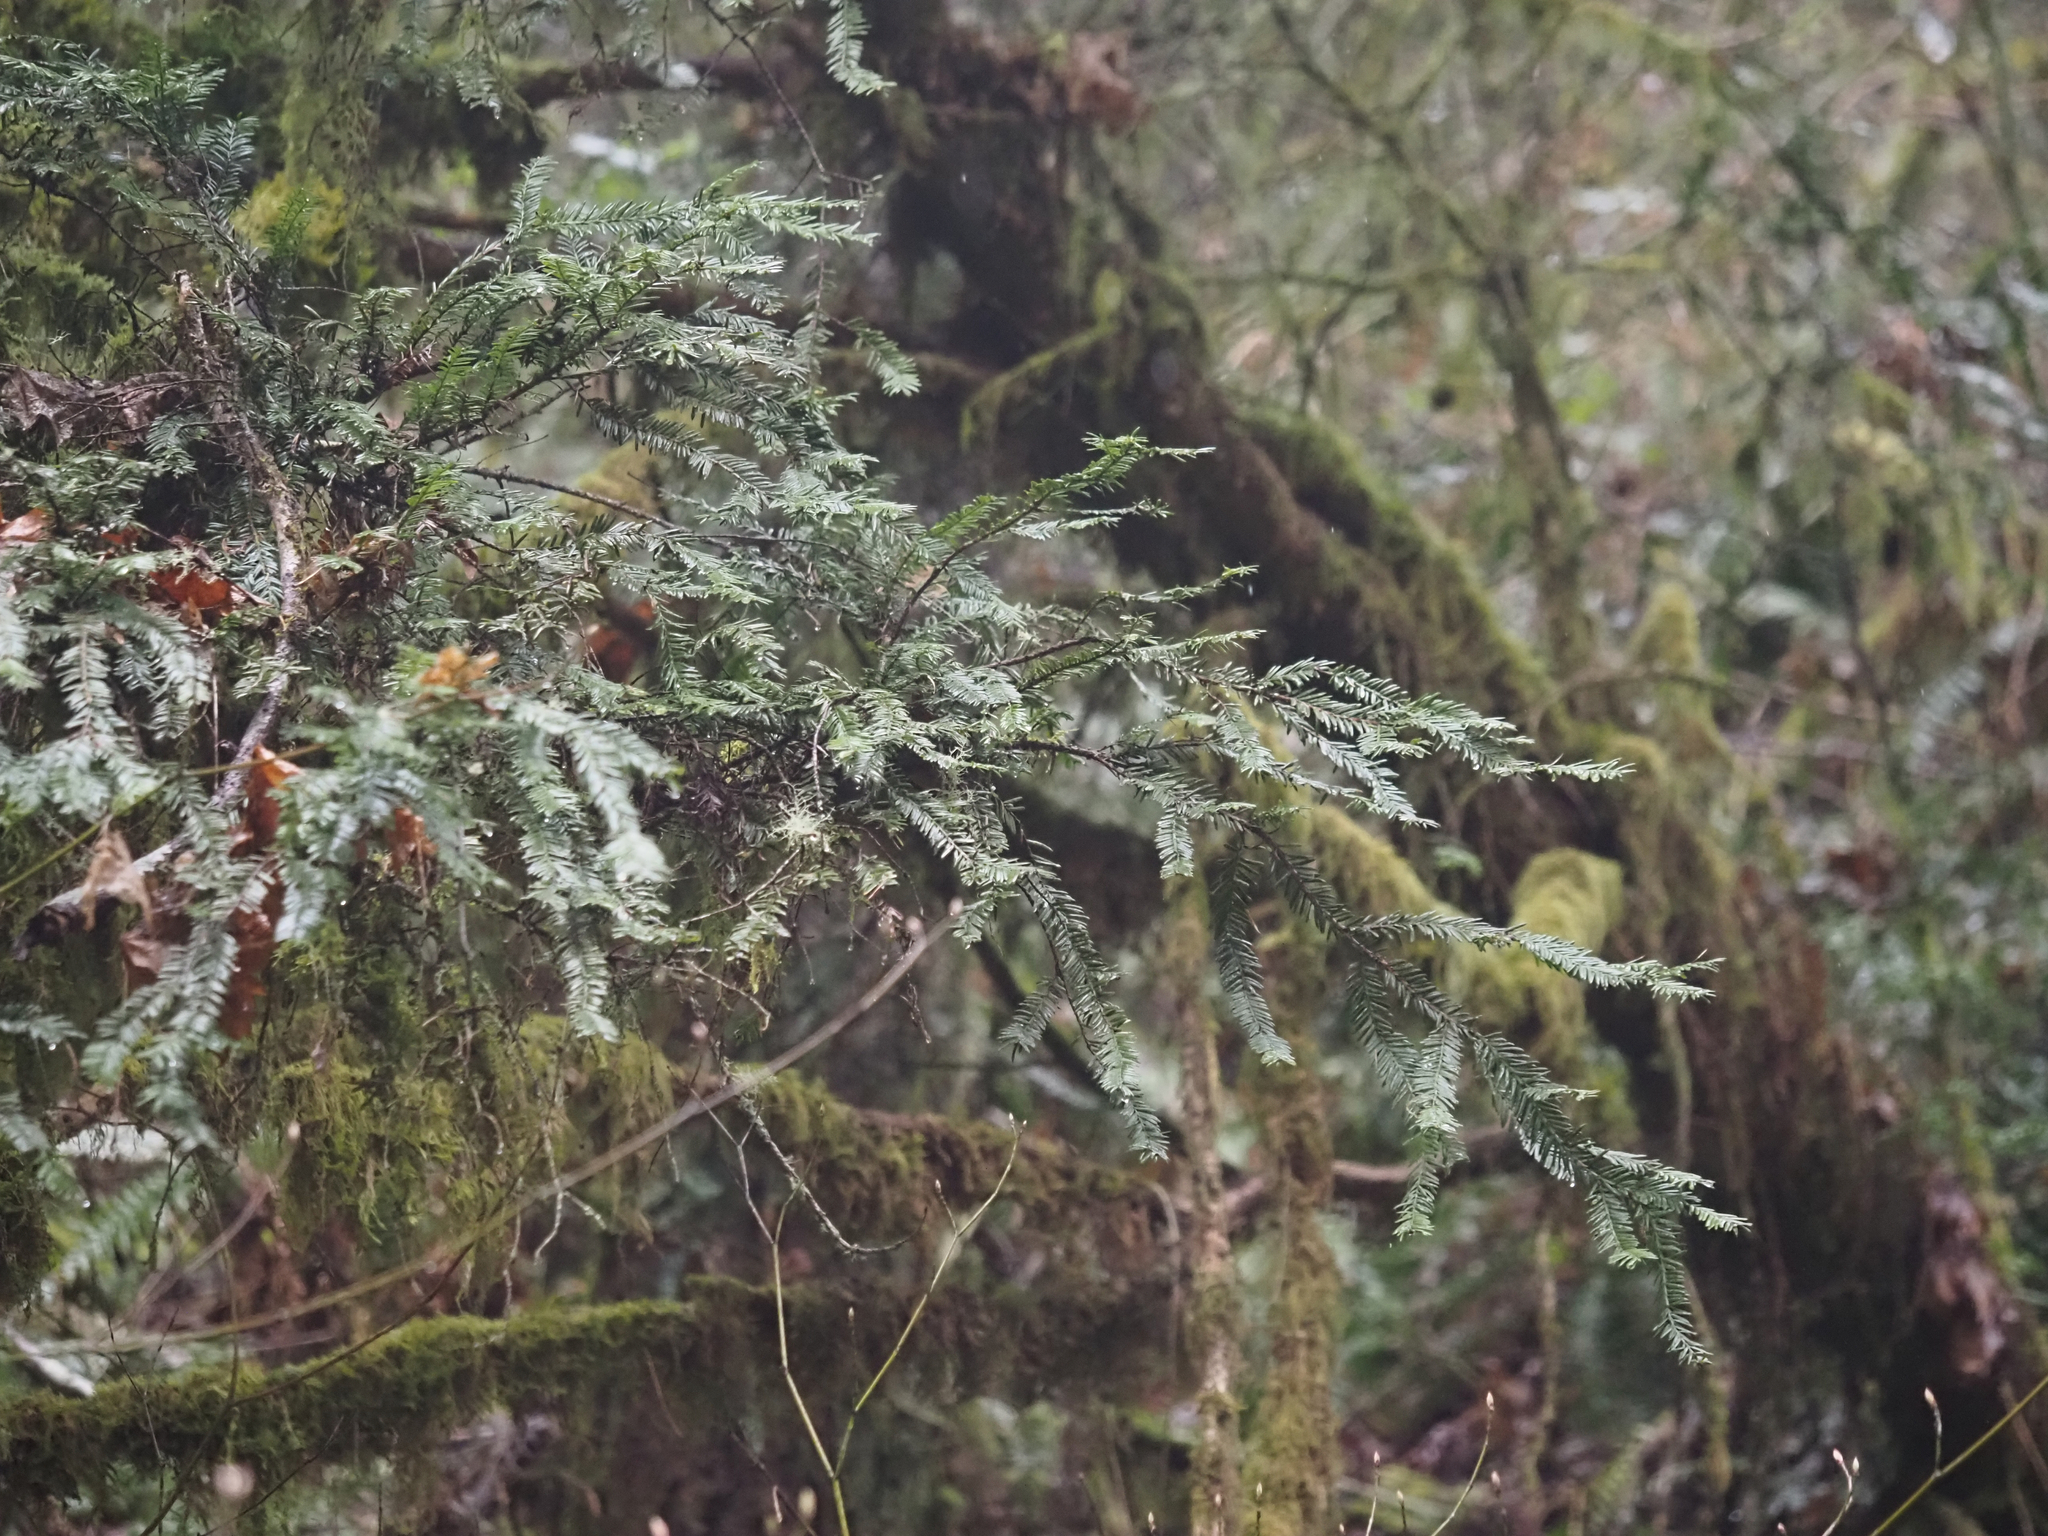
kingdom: Plantae
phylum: Tracheophyta
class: Pinopsida
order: Pinales
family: Taxaceae
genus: Taxus
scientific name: Taxus brevifolia
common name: Pacific yew
